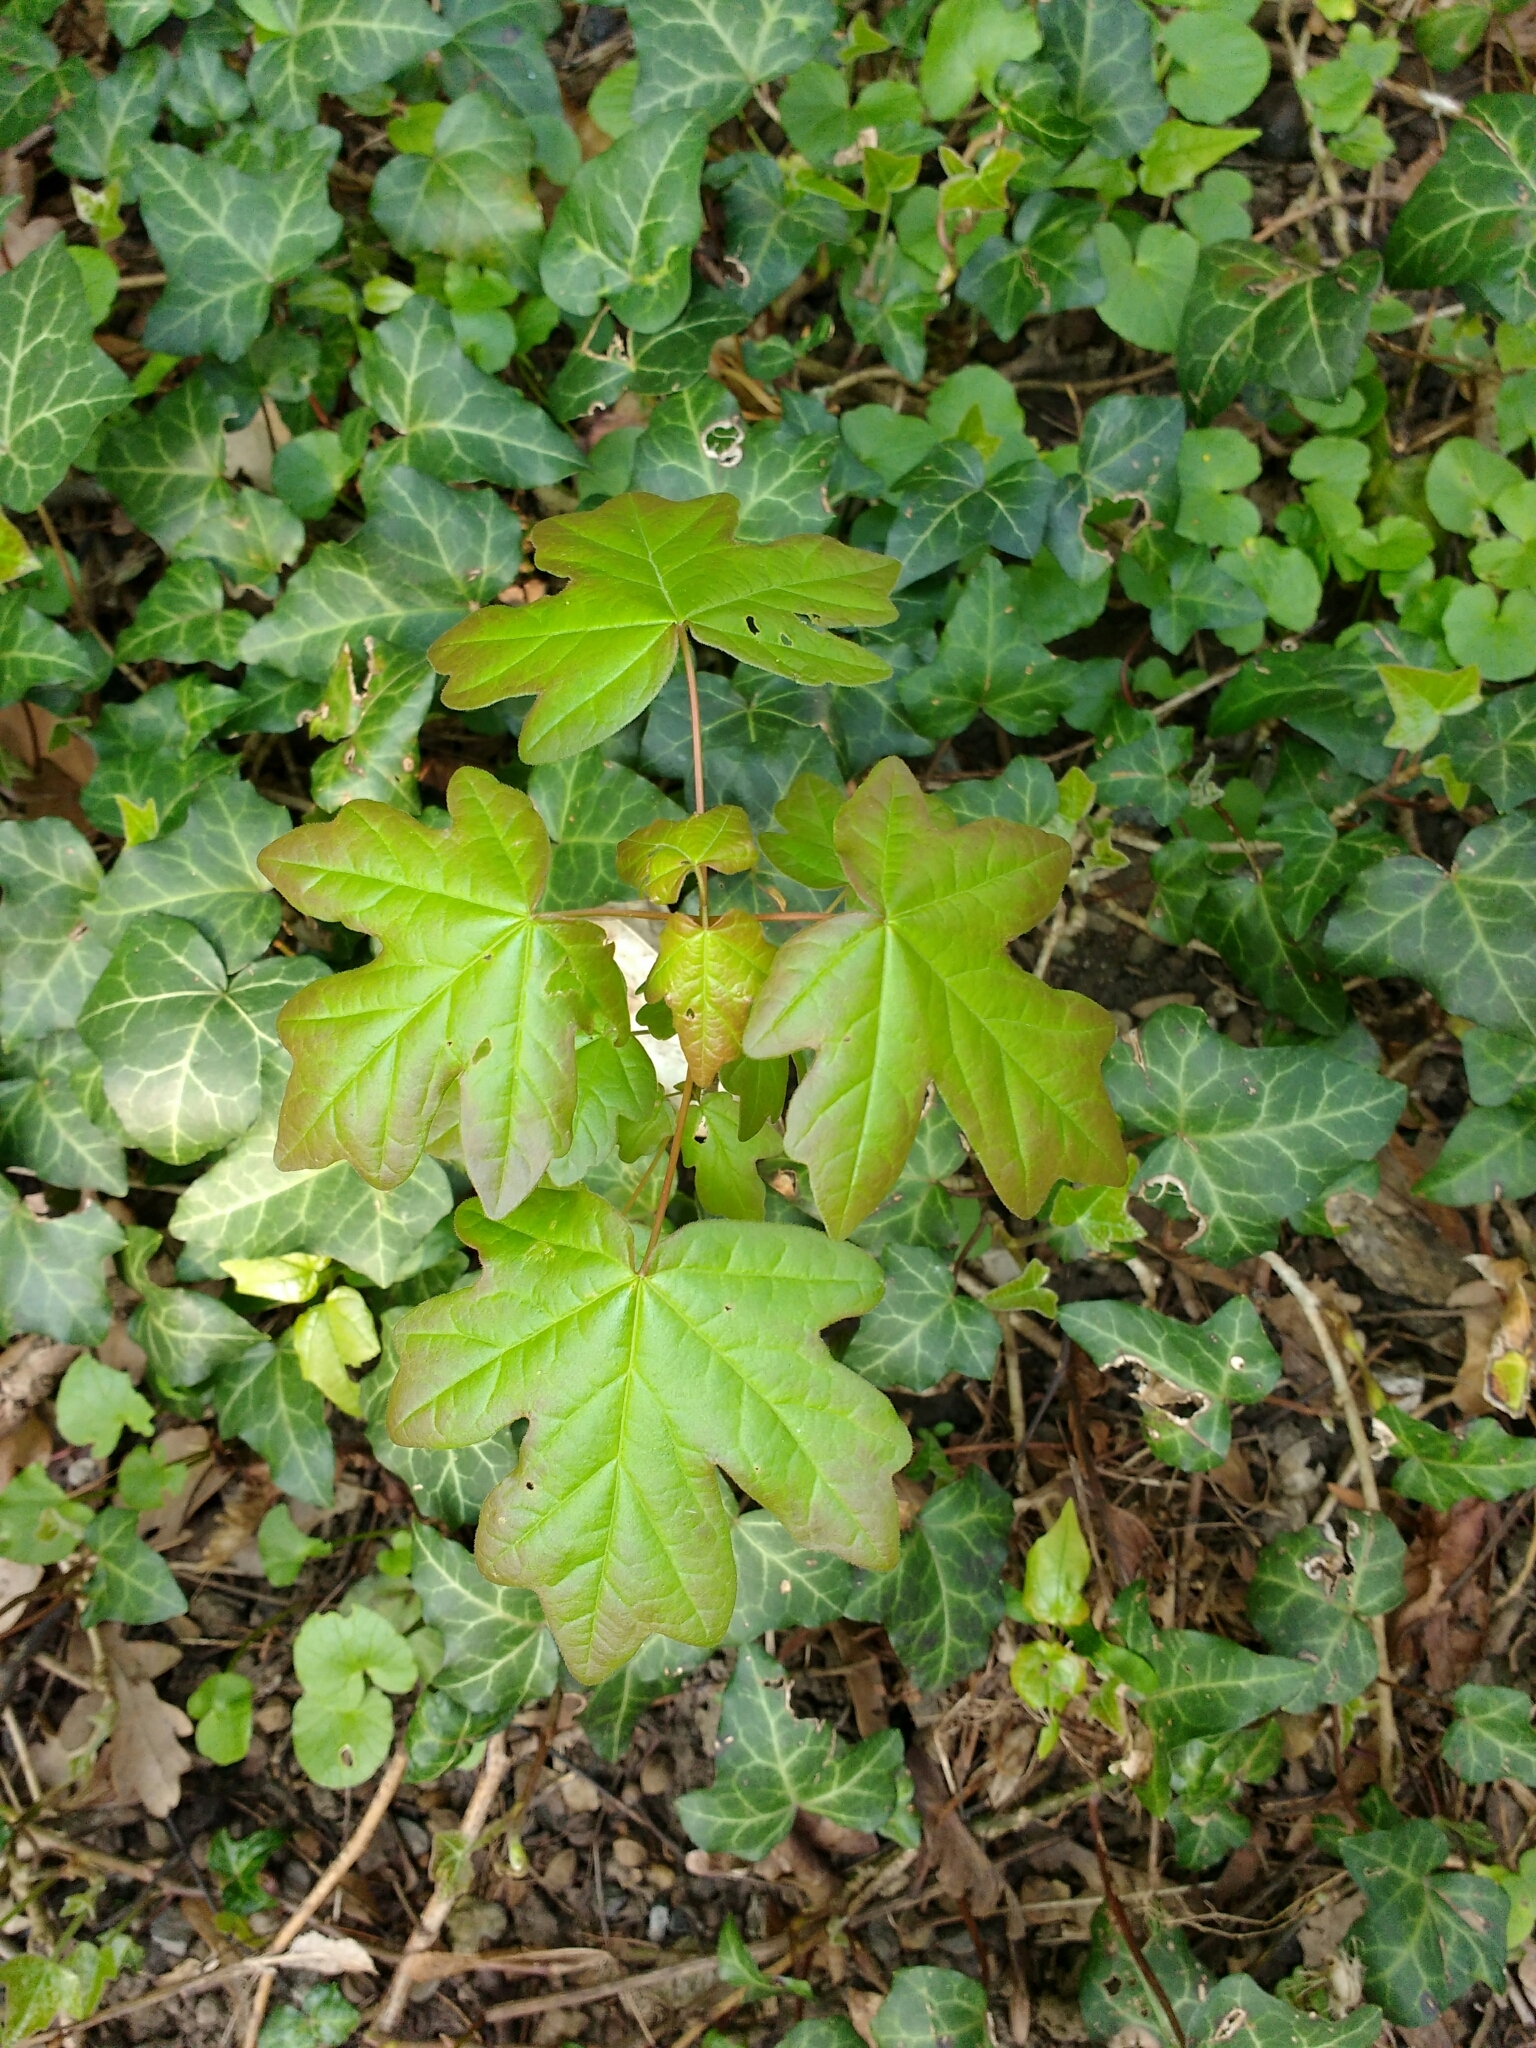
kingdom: Plantae
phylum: Tracheophyta
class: Magnoliopsida
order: Sapindales
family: Sapindaceae
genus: Acer
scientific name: Acer campestre
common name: Field maple
